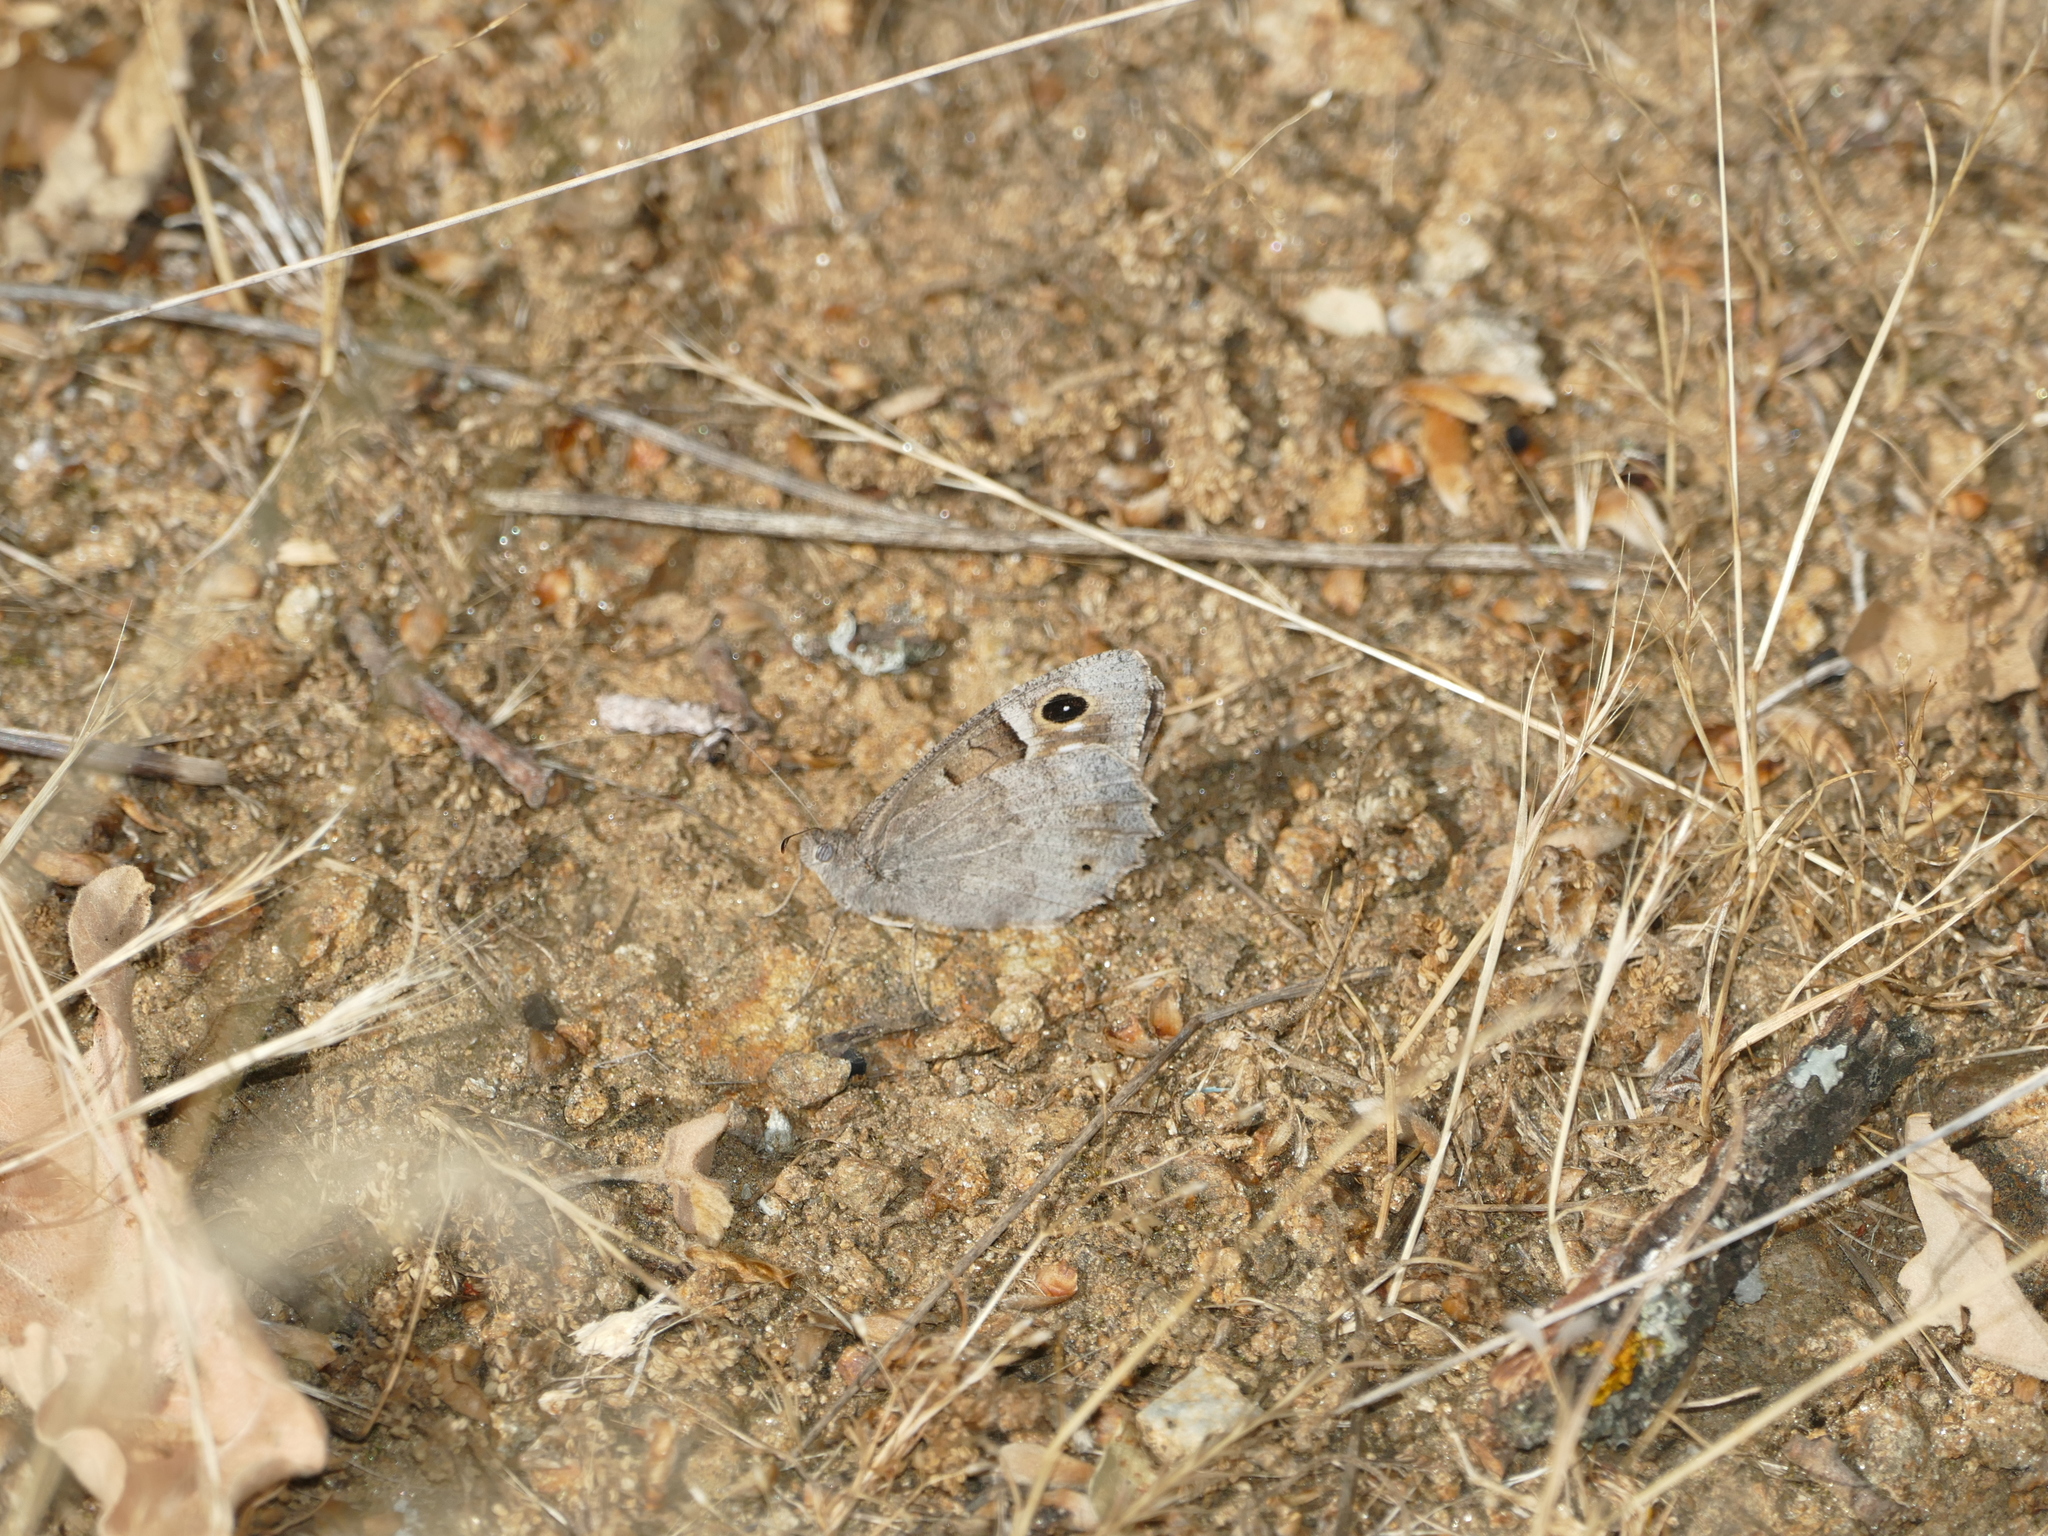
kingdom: Animalia
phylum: Arthropoda
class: Insecta
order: Lepidoptera
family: Nymphalidae
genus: Hipparchia
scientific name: Hipparchia statilinus
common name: Tree grayling
